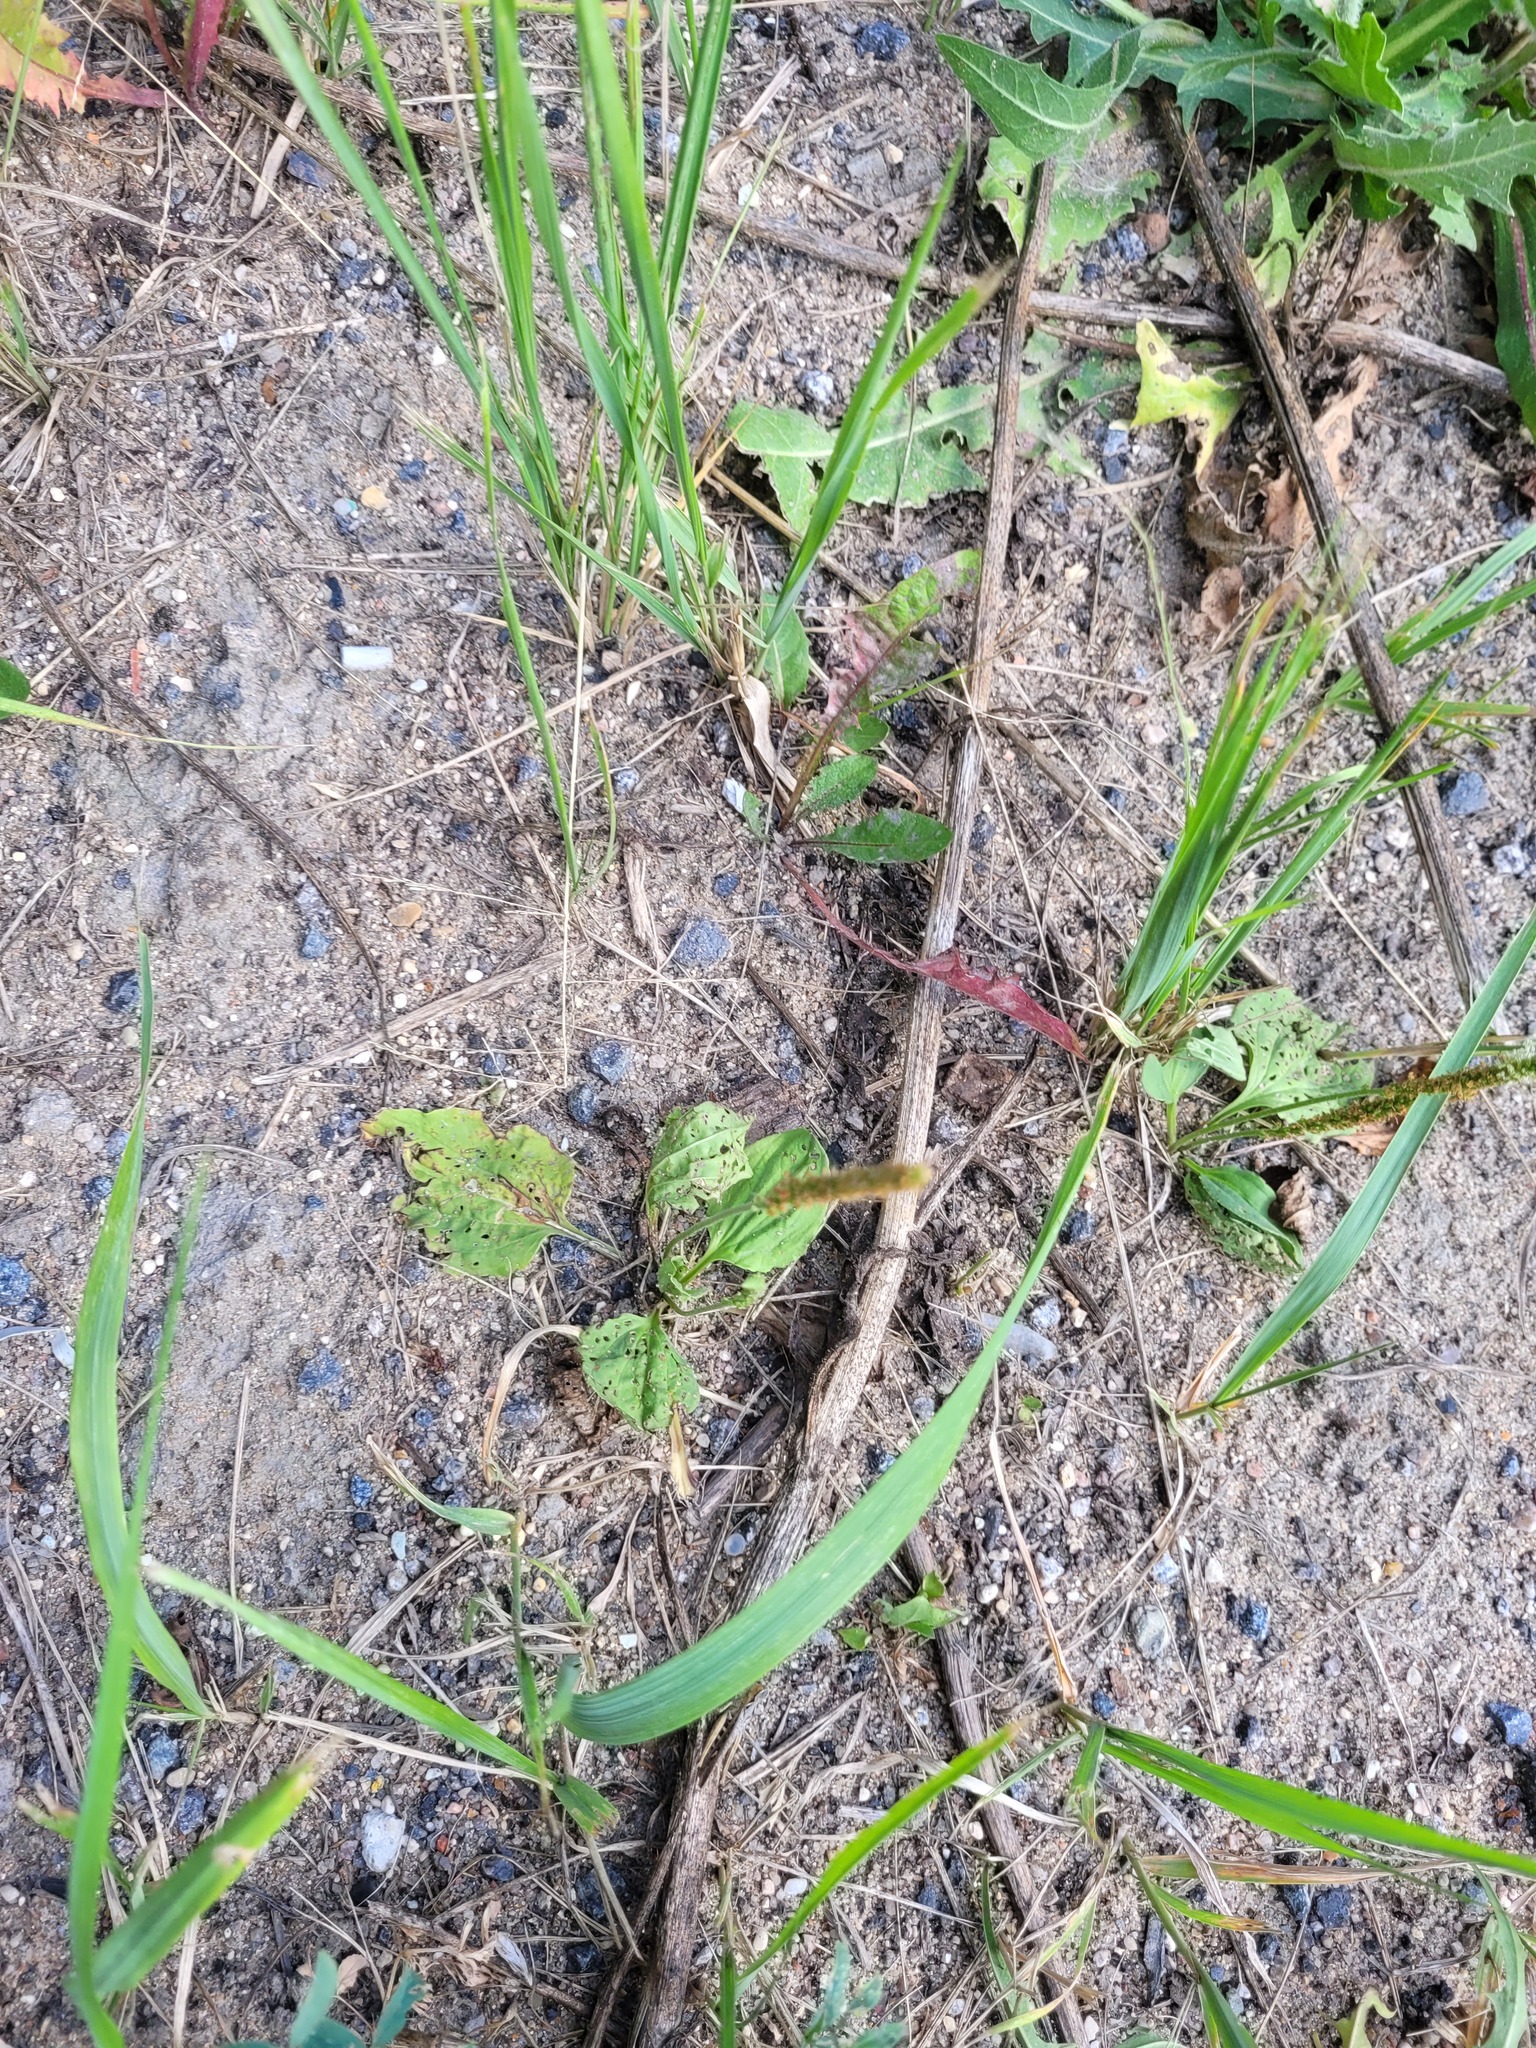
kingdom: Plantae
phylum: Tracheophyta
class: Magnoliopsida
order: Lamiales
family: Plantaginaceae
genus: Plantago
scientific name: Plantago major
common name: Common plantain
